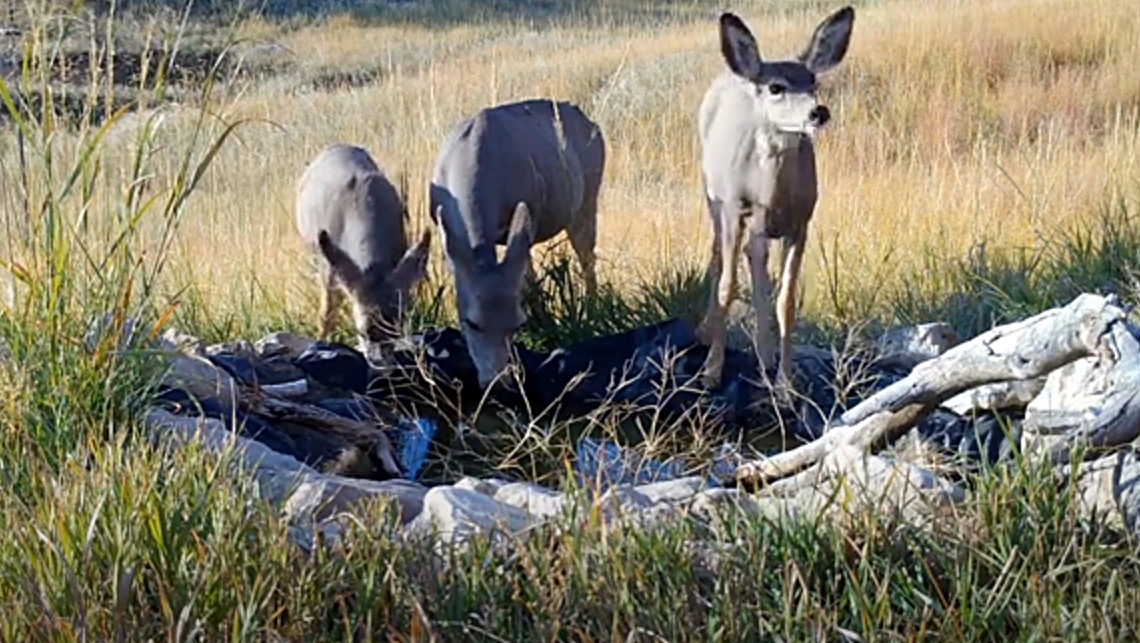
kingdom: Animalia
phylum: Chordata
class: Mammalia
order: Artiodactyla
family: Cervidae
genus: Odocoileus
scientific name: Odocoileus hemionus
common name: Mule deer
